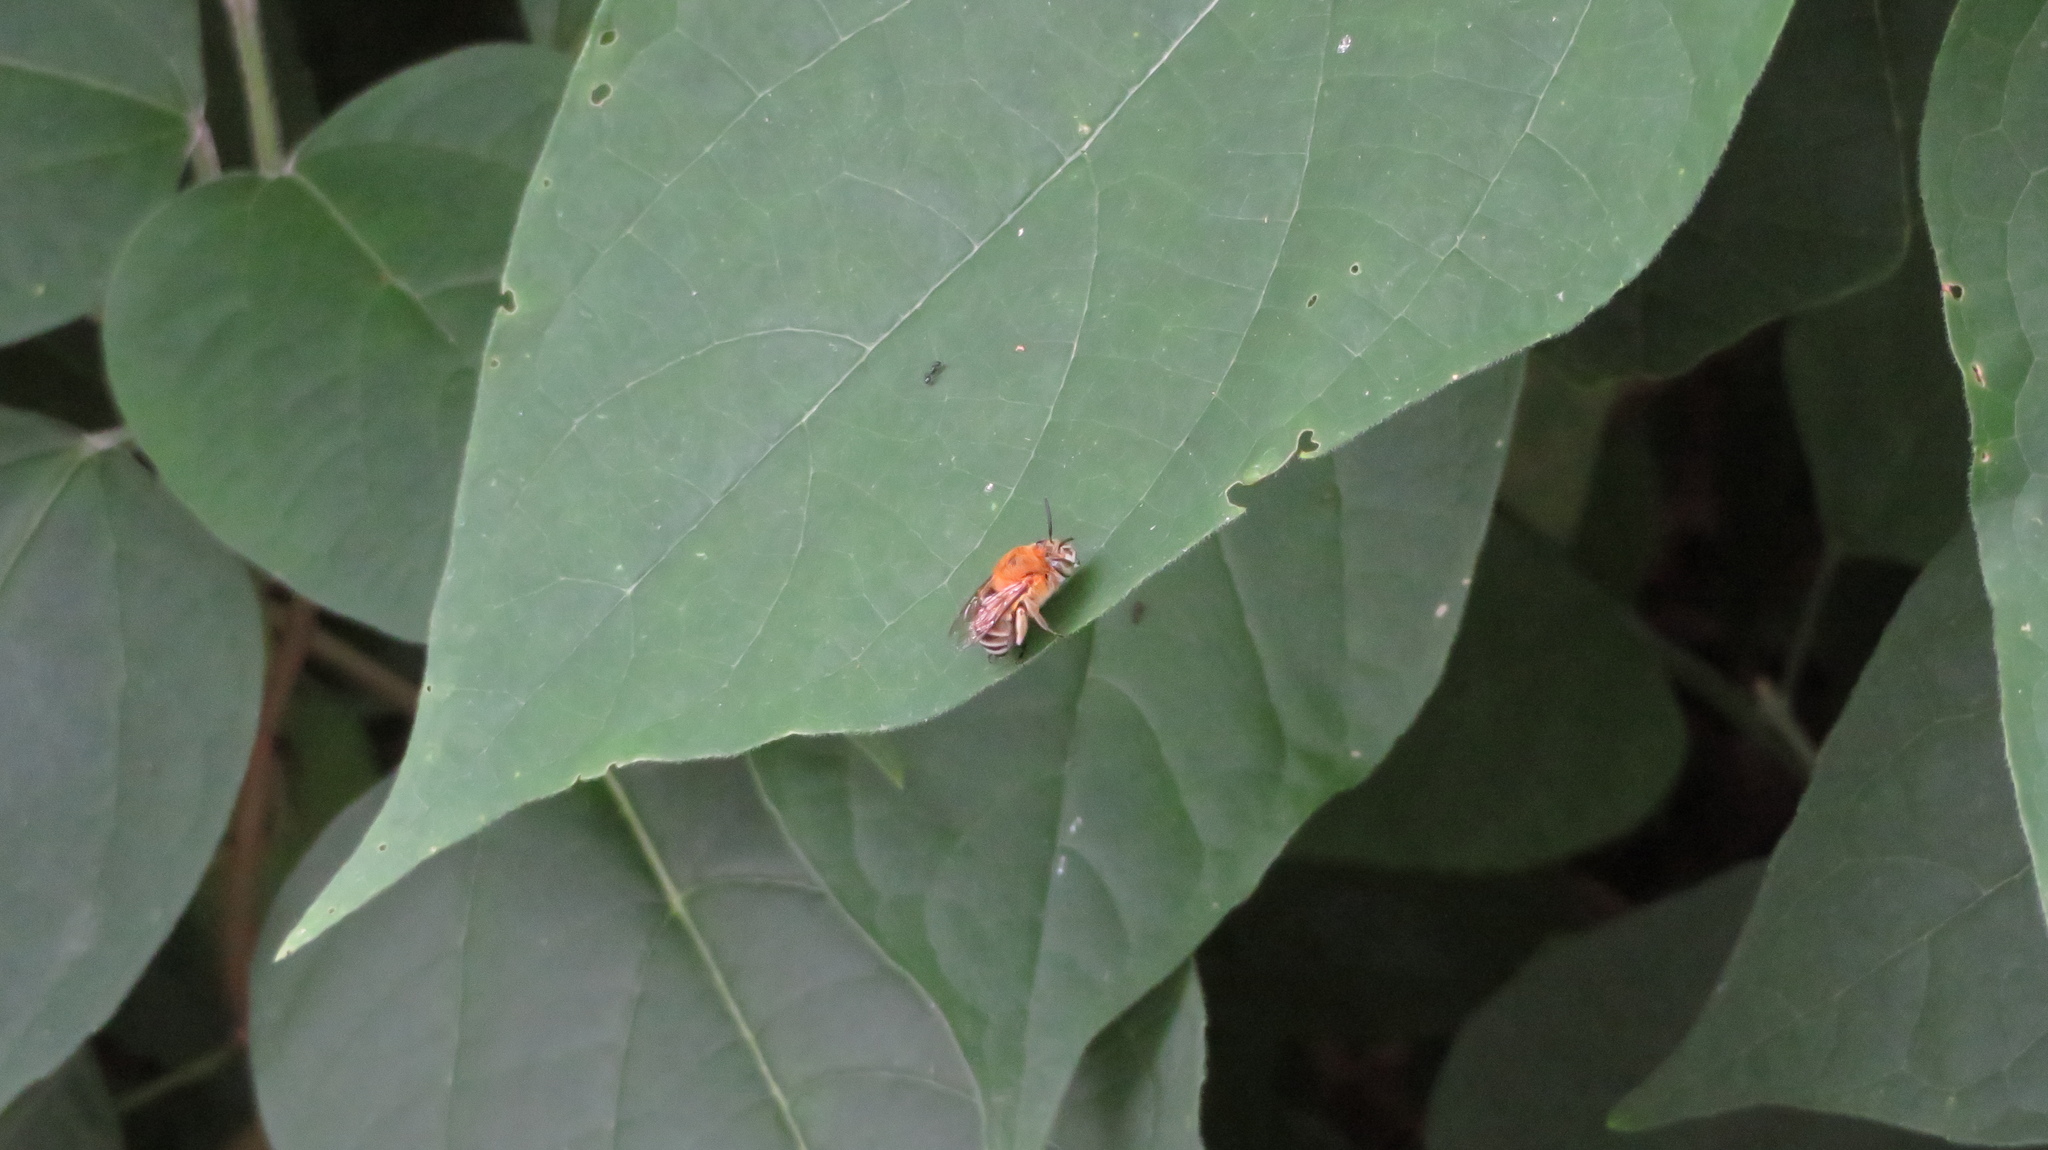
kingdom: Animalia
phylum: Arthropoda
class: Insecta
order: Hymenoptera
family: Apidae
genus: Amegilla
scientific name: Amegilla florea
